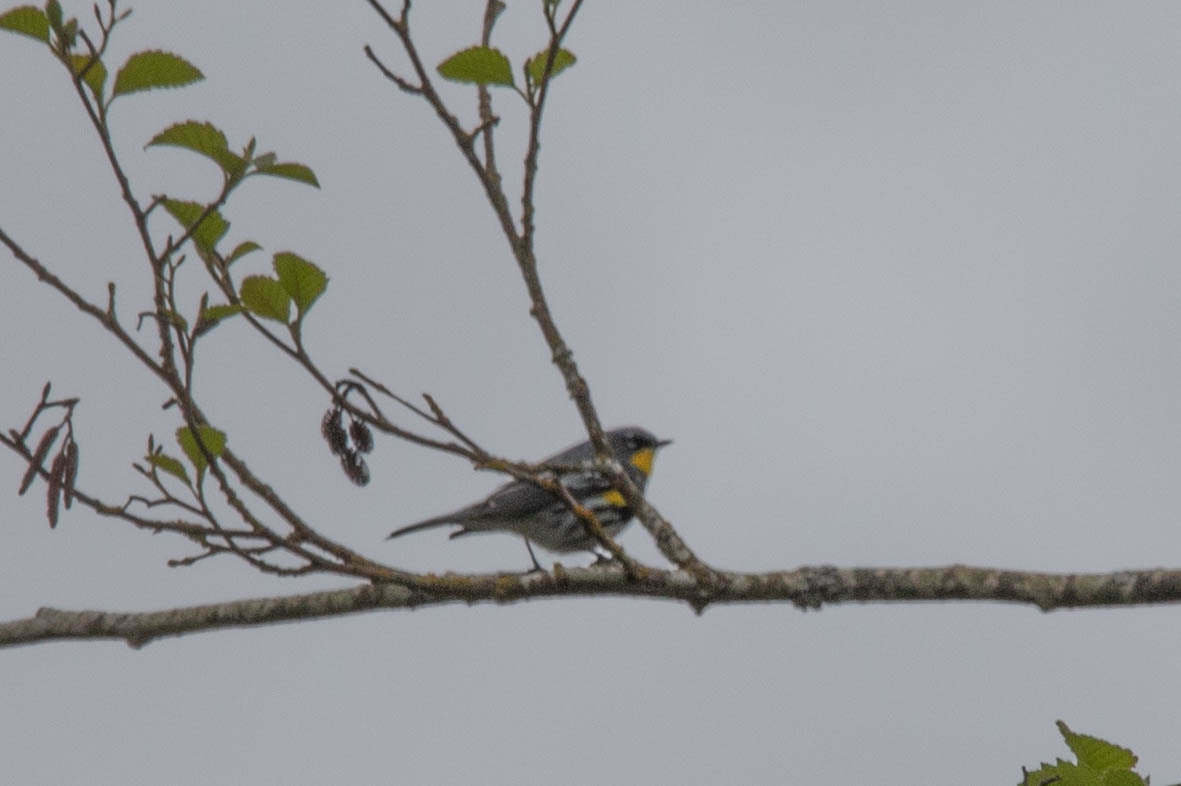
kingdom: Animalia
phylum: Chordata
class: Aves
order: Passeriformes
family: Parulidae
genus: Setophaga
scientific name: Setophaga auduboni
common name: Audubon's warbler
